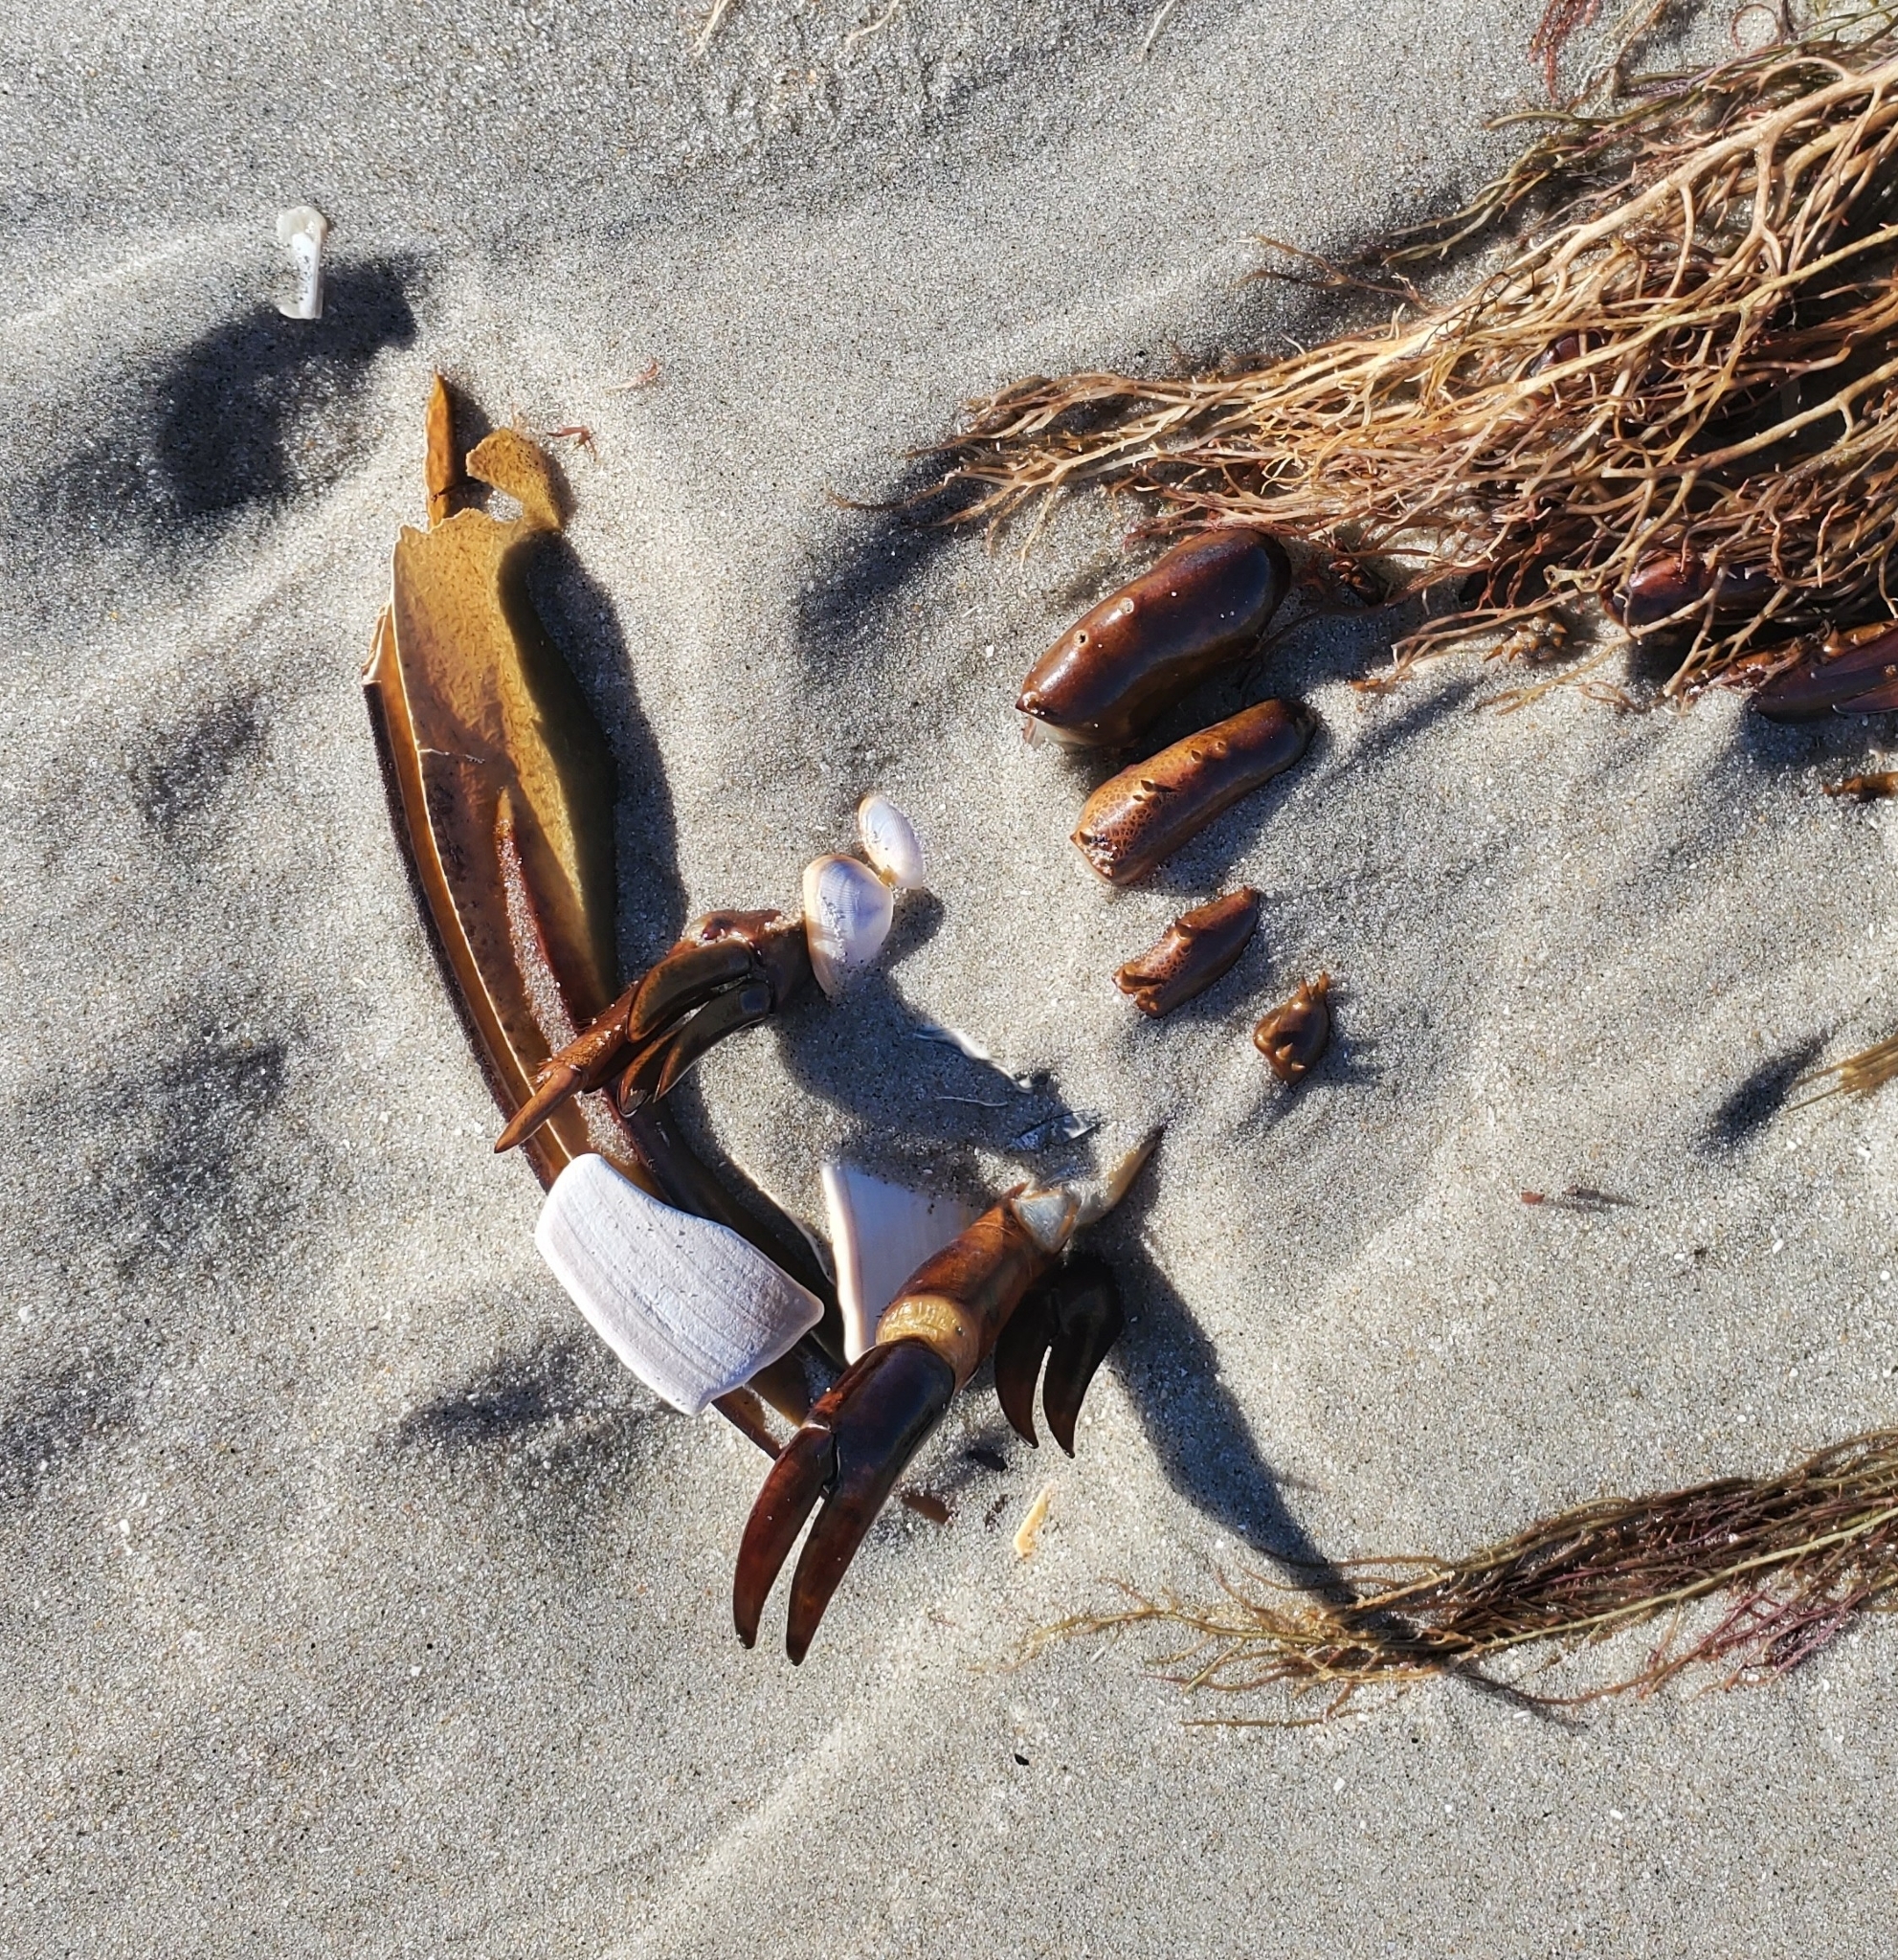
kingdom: Animalia
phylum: Arthropoda
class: Merostomata
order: Xiphosurida
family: Limulidae
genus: Limulus
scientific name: Limulus polyphemus
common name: Horseshoe crab
